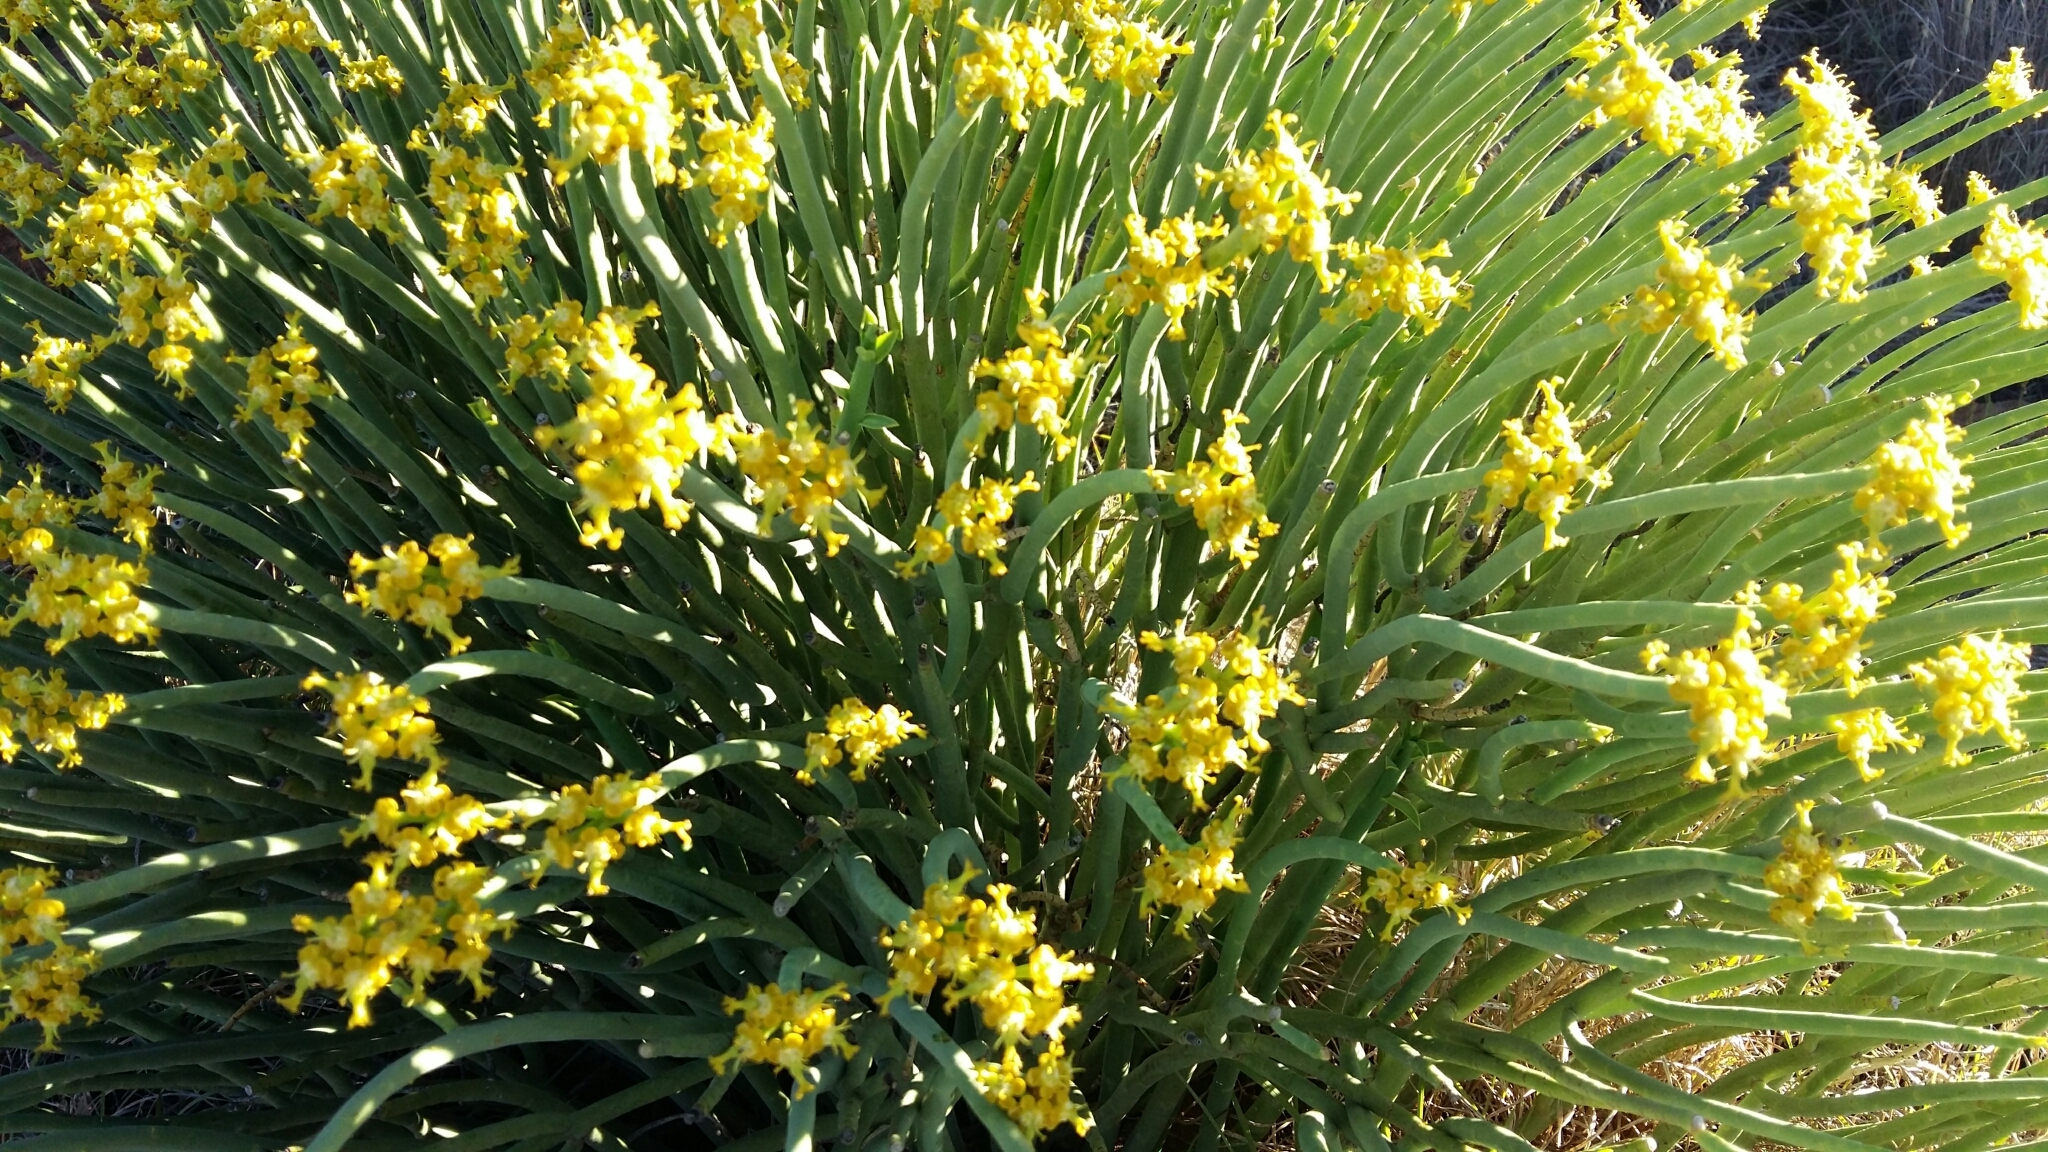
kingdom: Plantae
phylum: Tracheophyta
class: Magnoliopsida
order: Malpighiales
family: Euphorbiaceae
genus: Euphorbia
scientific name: Euphorbia mauritanica
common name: Jackal's-food
